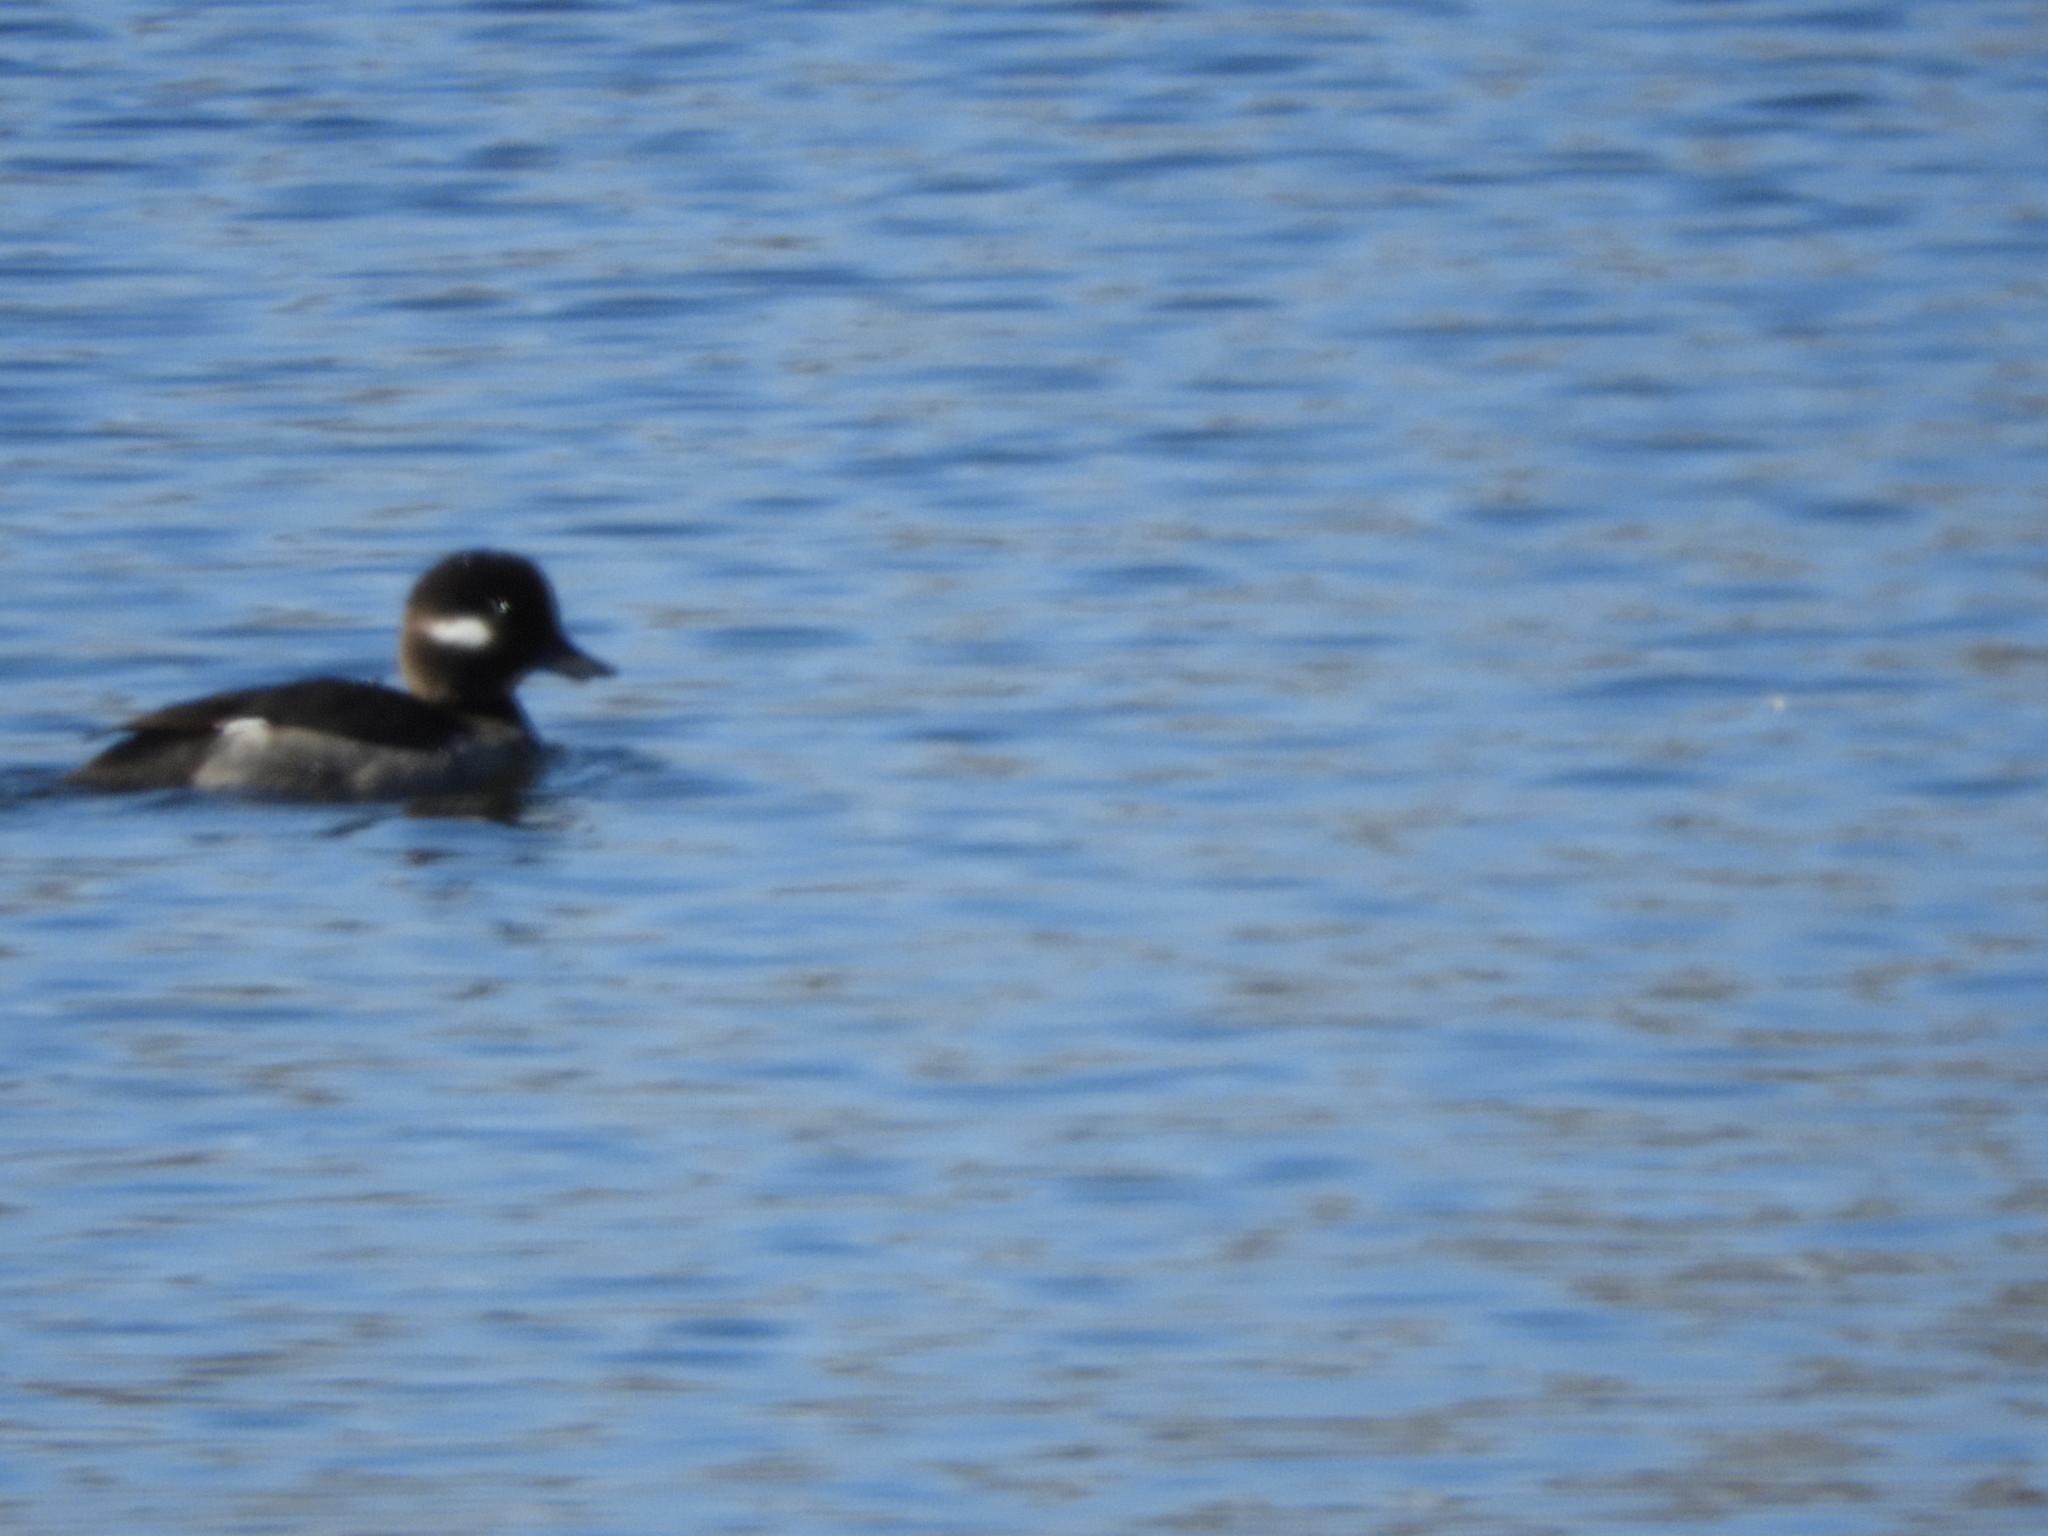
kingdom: Animalia
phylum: Chordata
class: Aves
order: Anseriformes
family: Anatidae
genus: Bucephala
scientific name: Bucephala albeola
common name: Bufflehead
